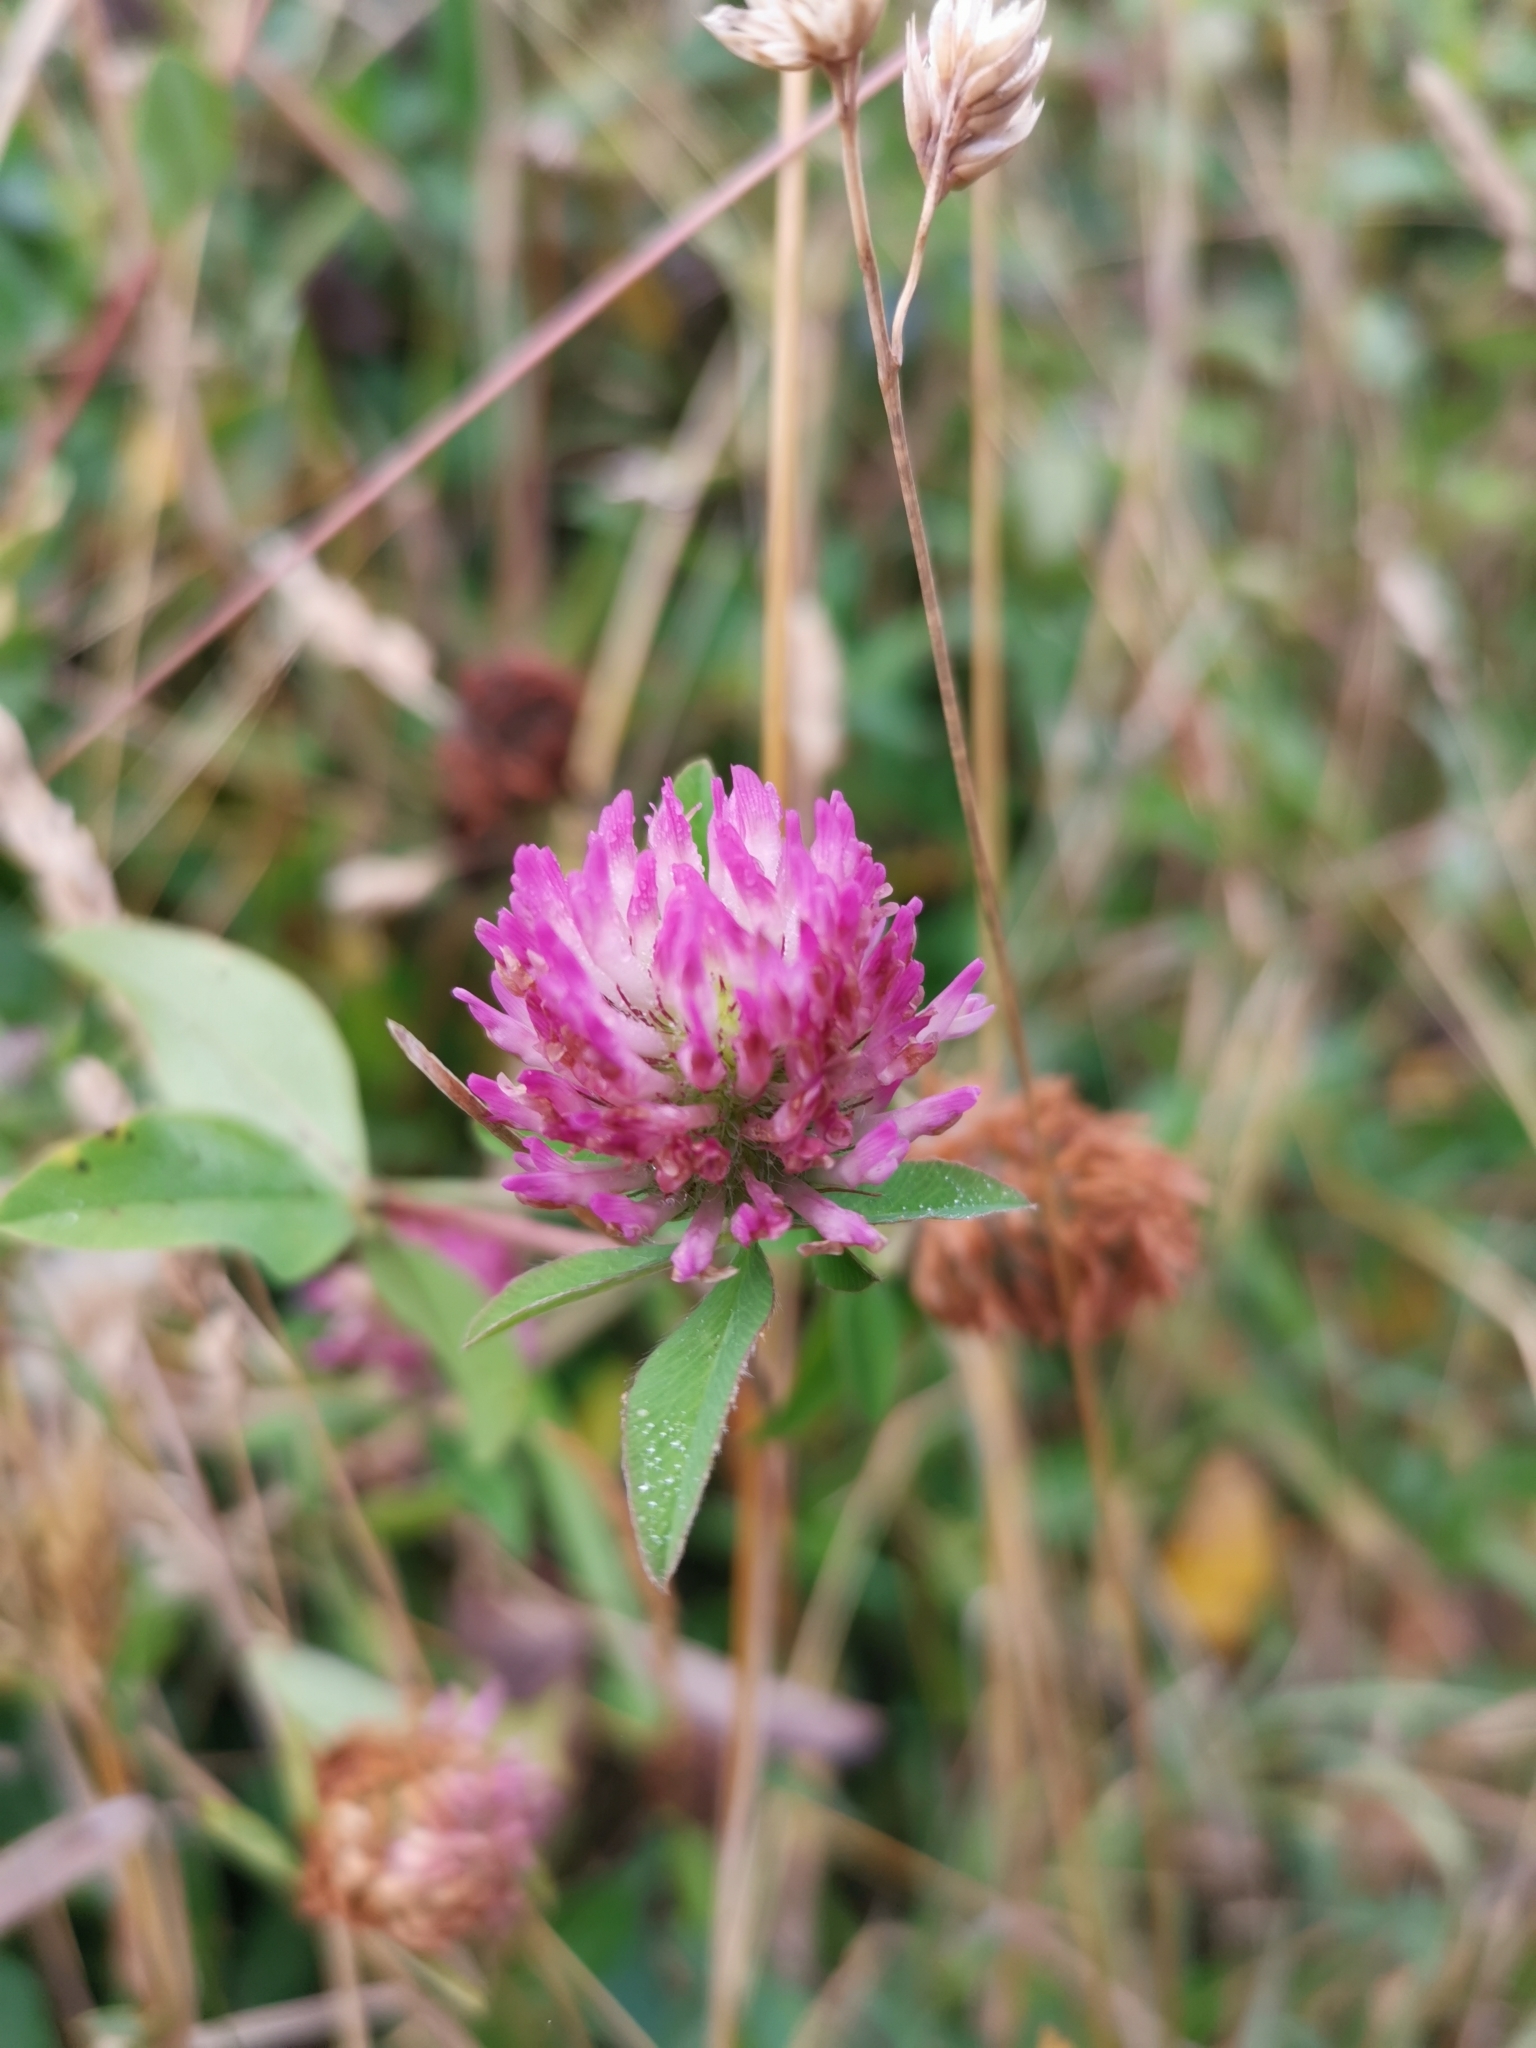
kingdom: Plantae
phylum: Tracheophyta
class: Magnoliopsida
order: Fabales
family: Fabaceae
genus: Trifolium
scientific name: Trifolium pratense
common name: Red clover
